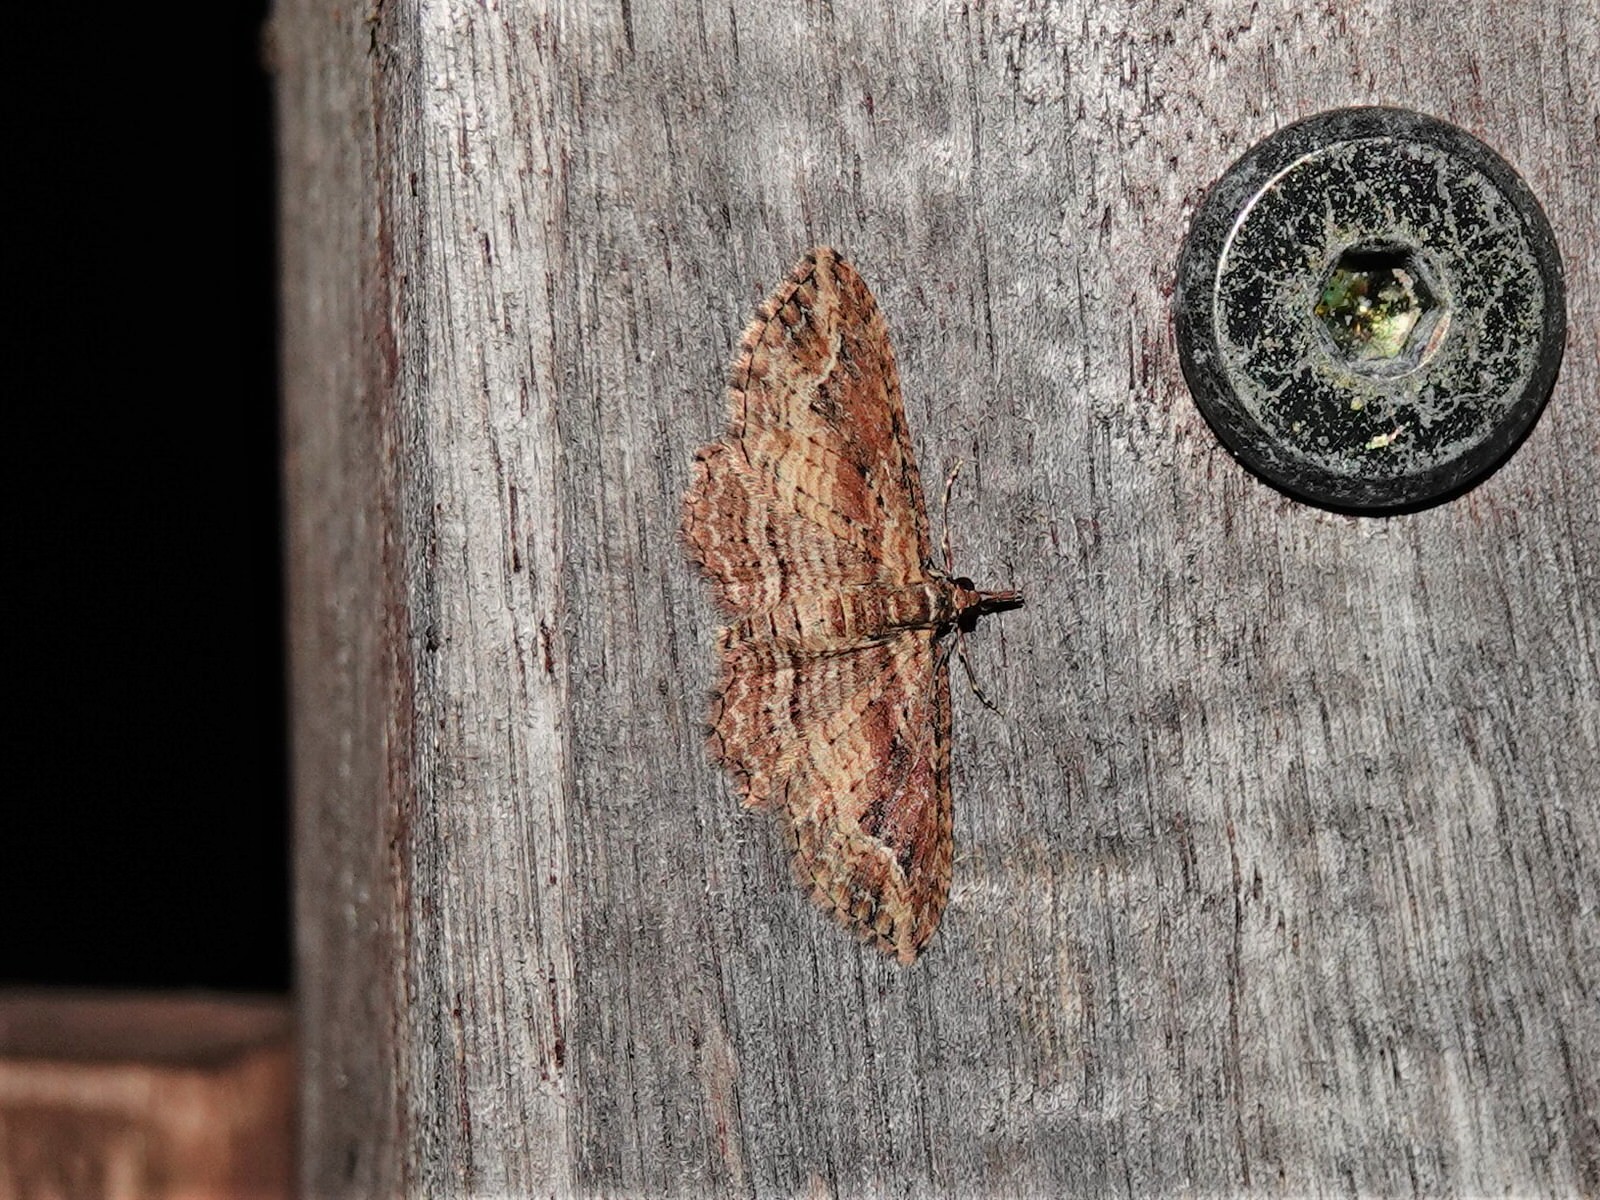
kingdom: Animalia
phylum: Arthropoda
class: Insecta
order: Lepidoptera
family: Geometridae
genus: Chloroclystis
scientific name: Chloroclystis filata
